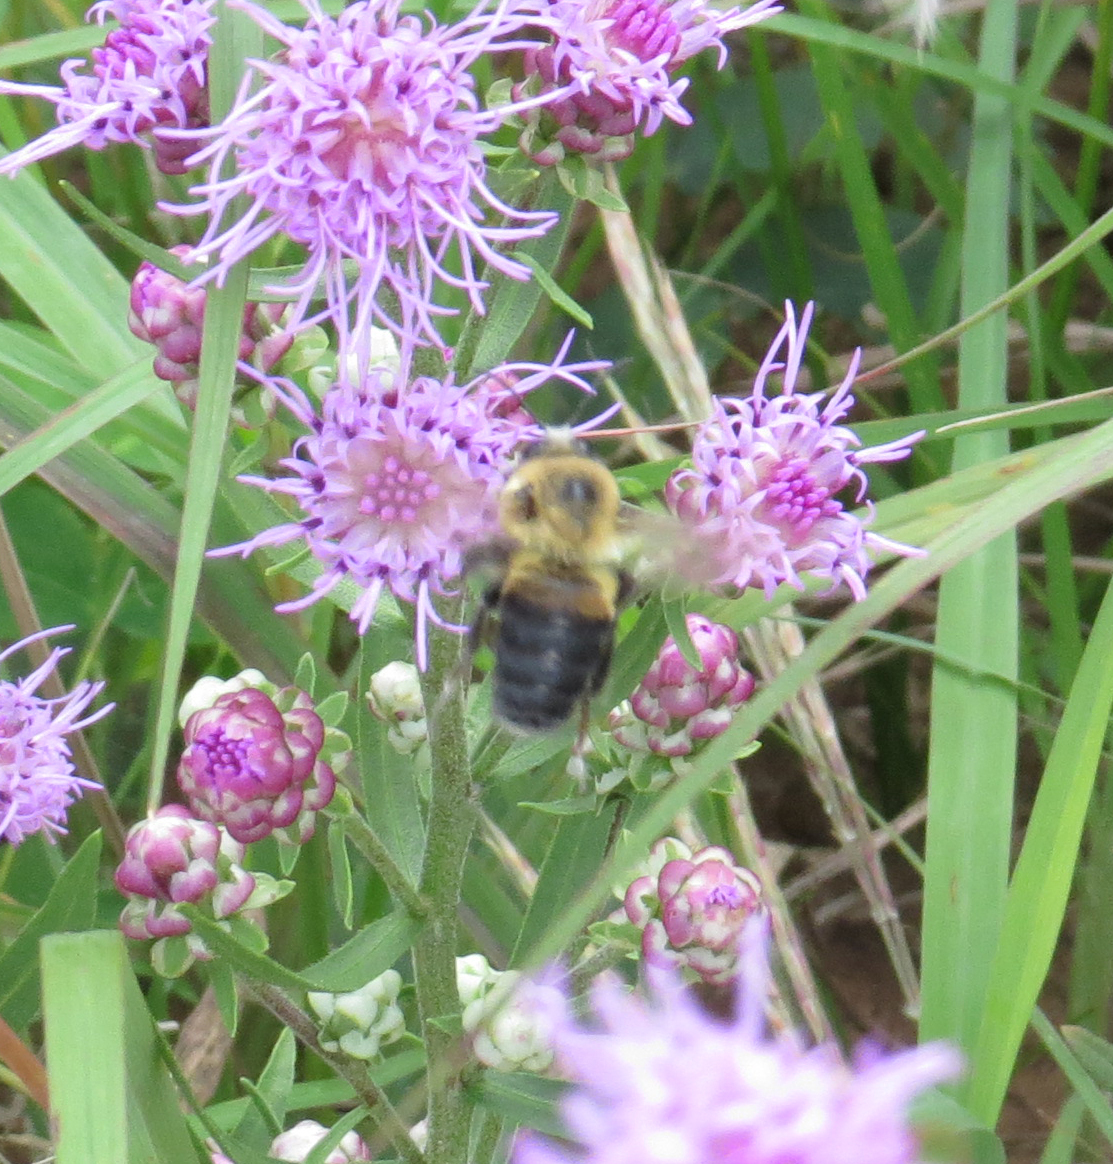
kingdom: Animalia
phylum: Arthropoda
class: Insecta
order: Hymenoptera
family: Apidae
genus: Bombus
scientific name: Bombus griseocollis
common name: Brown-belted bumble bee
